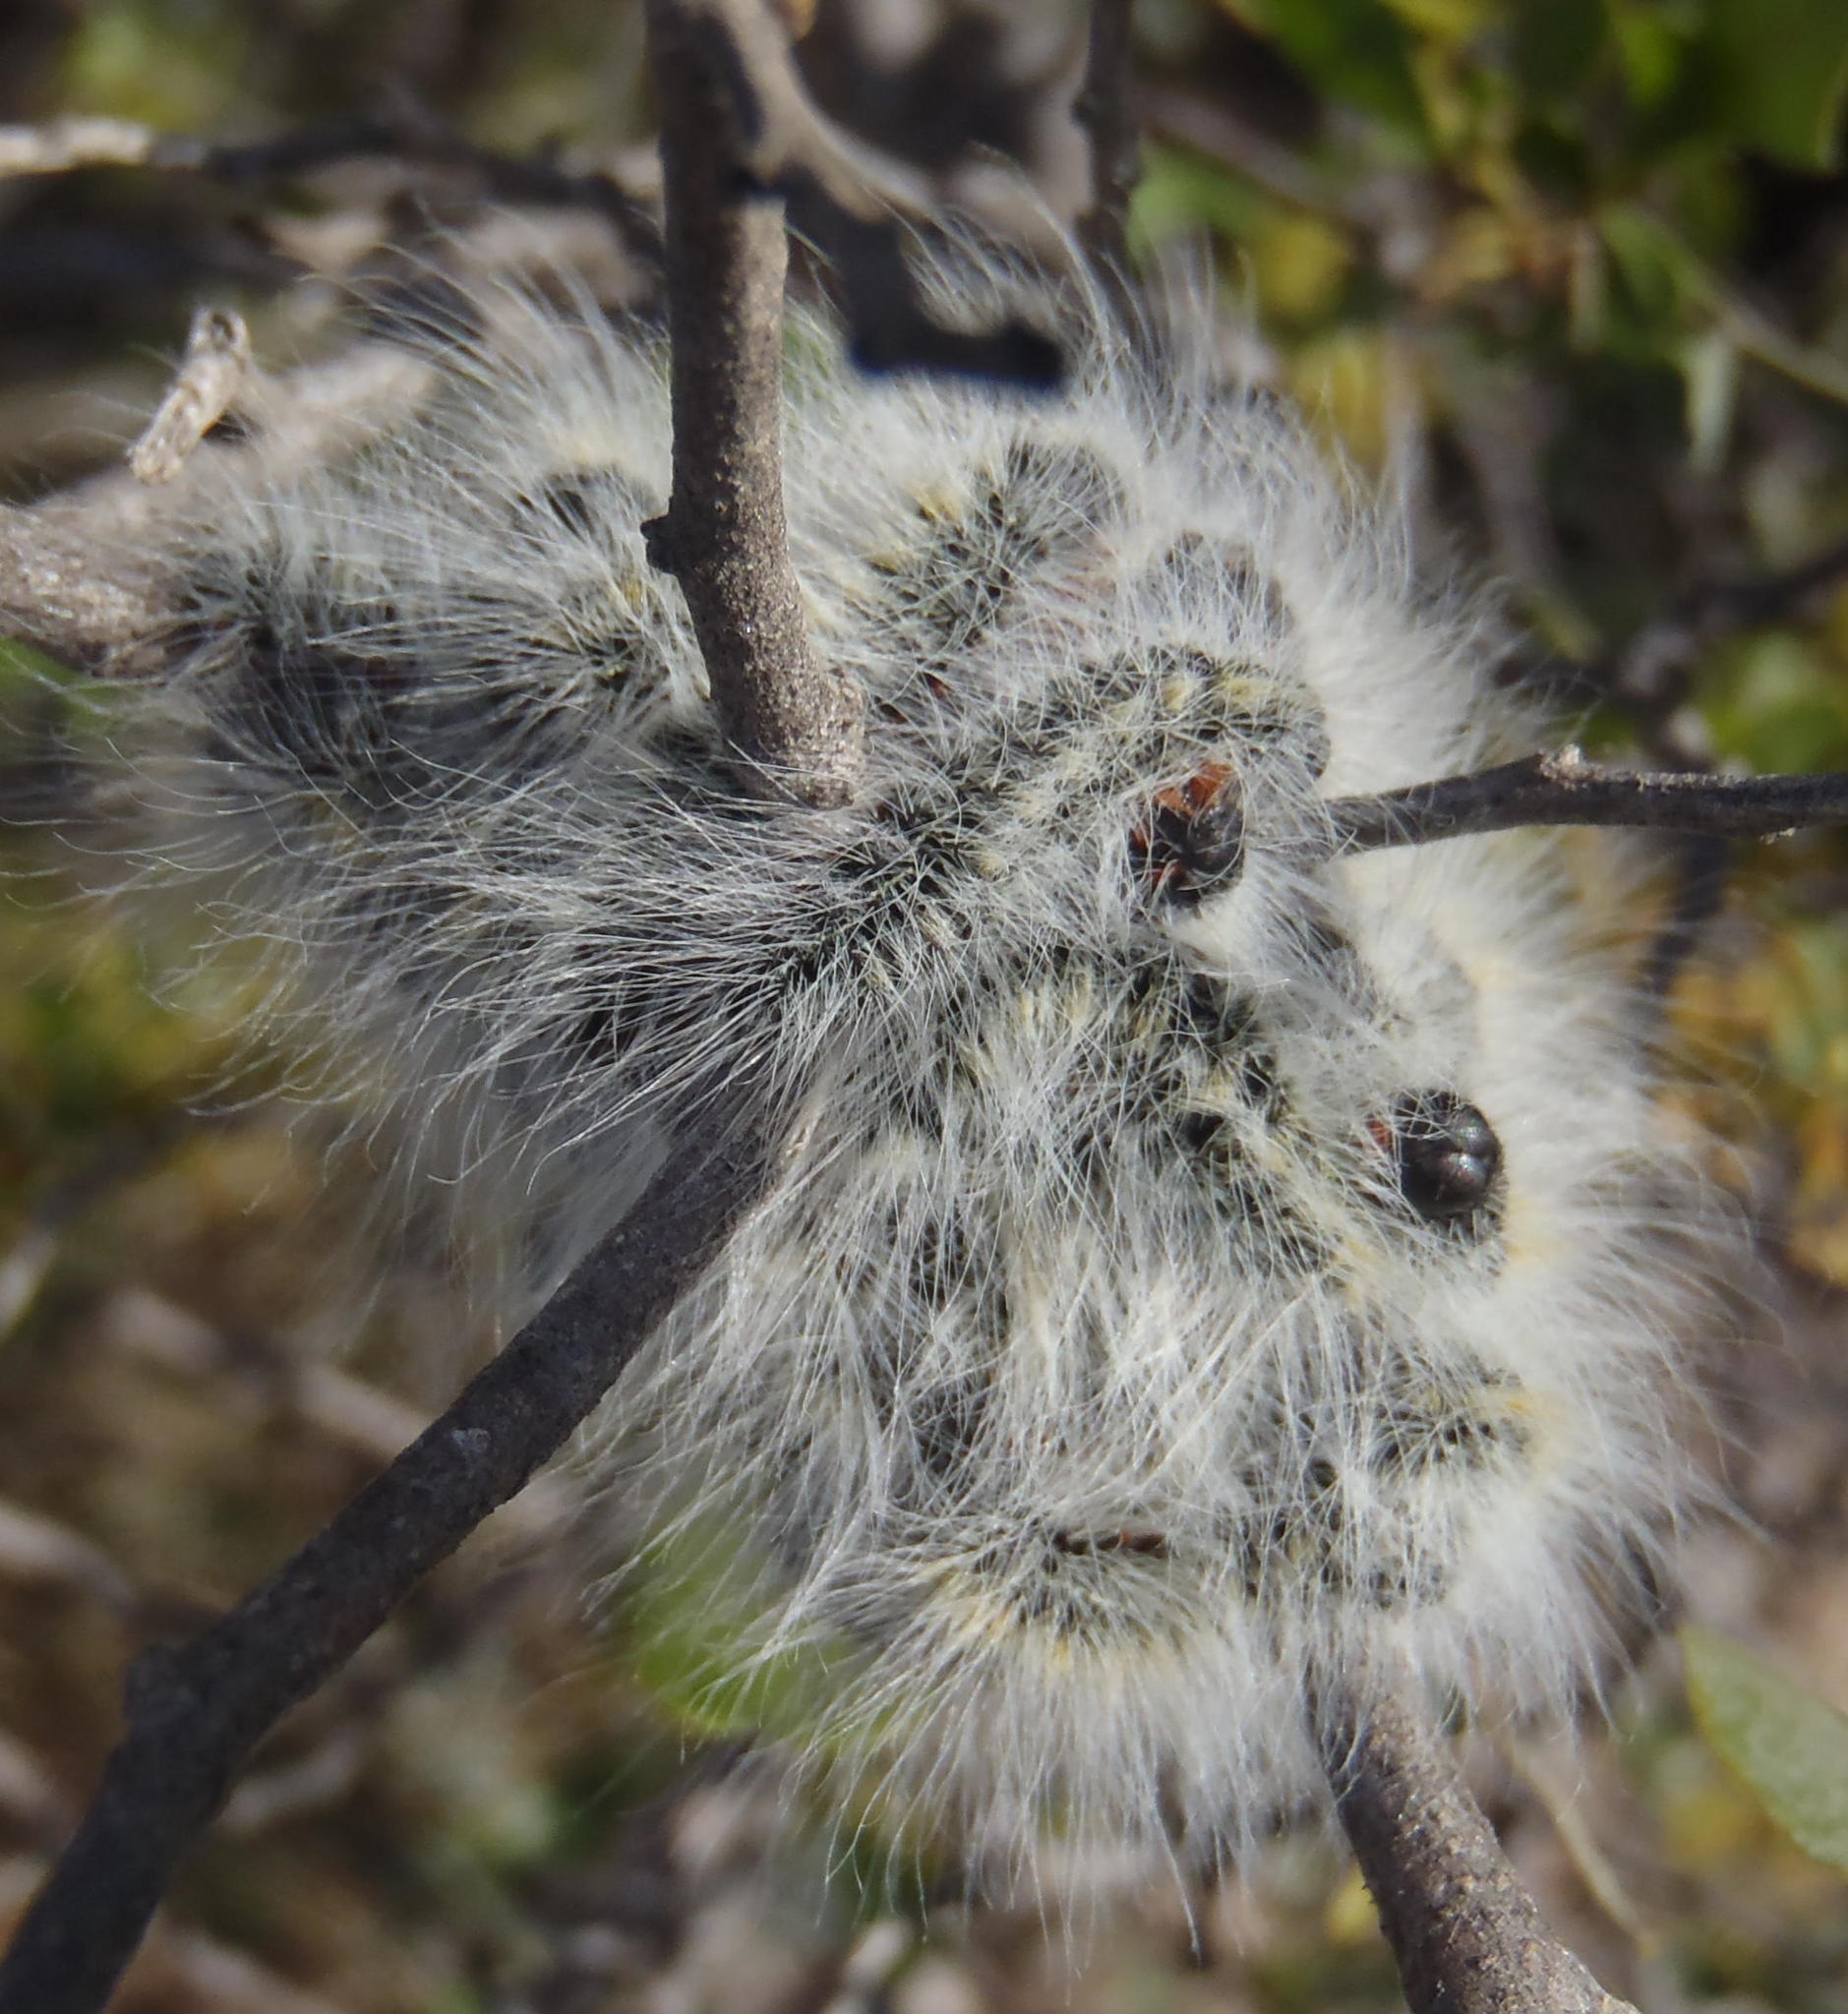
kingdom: Animalia
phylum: Arthropoda
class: Insecta
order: Lepidoptera
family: Lasiocampidae
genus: Bombycomorpha
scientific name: Bombycomorpha bifascia
